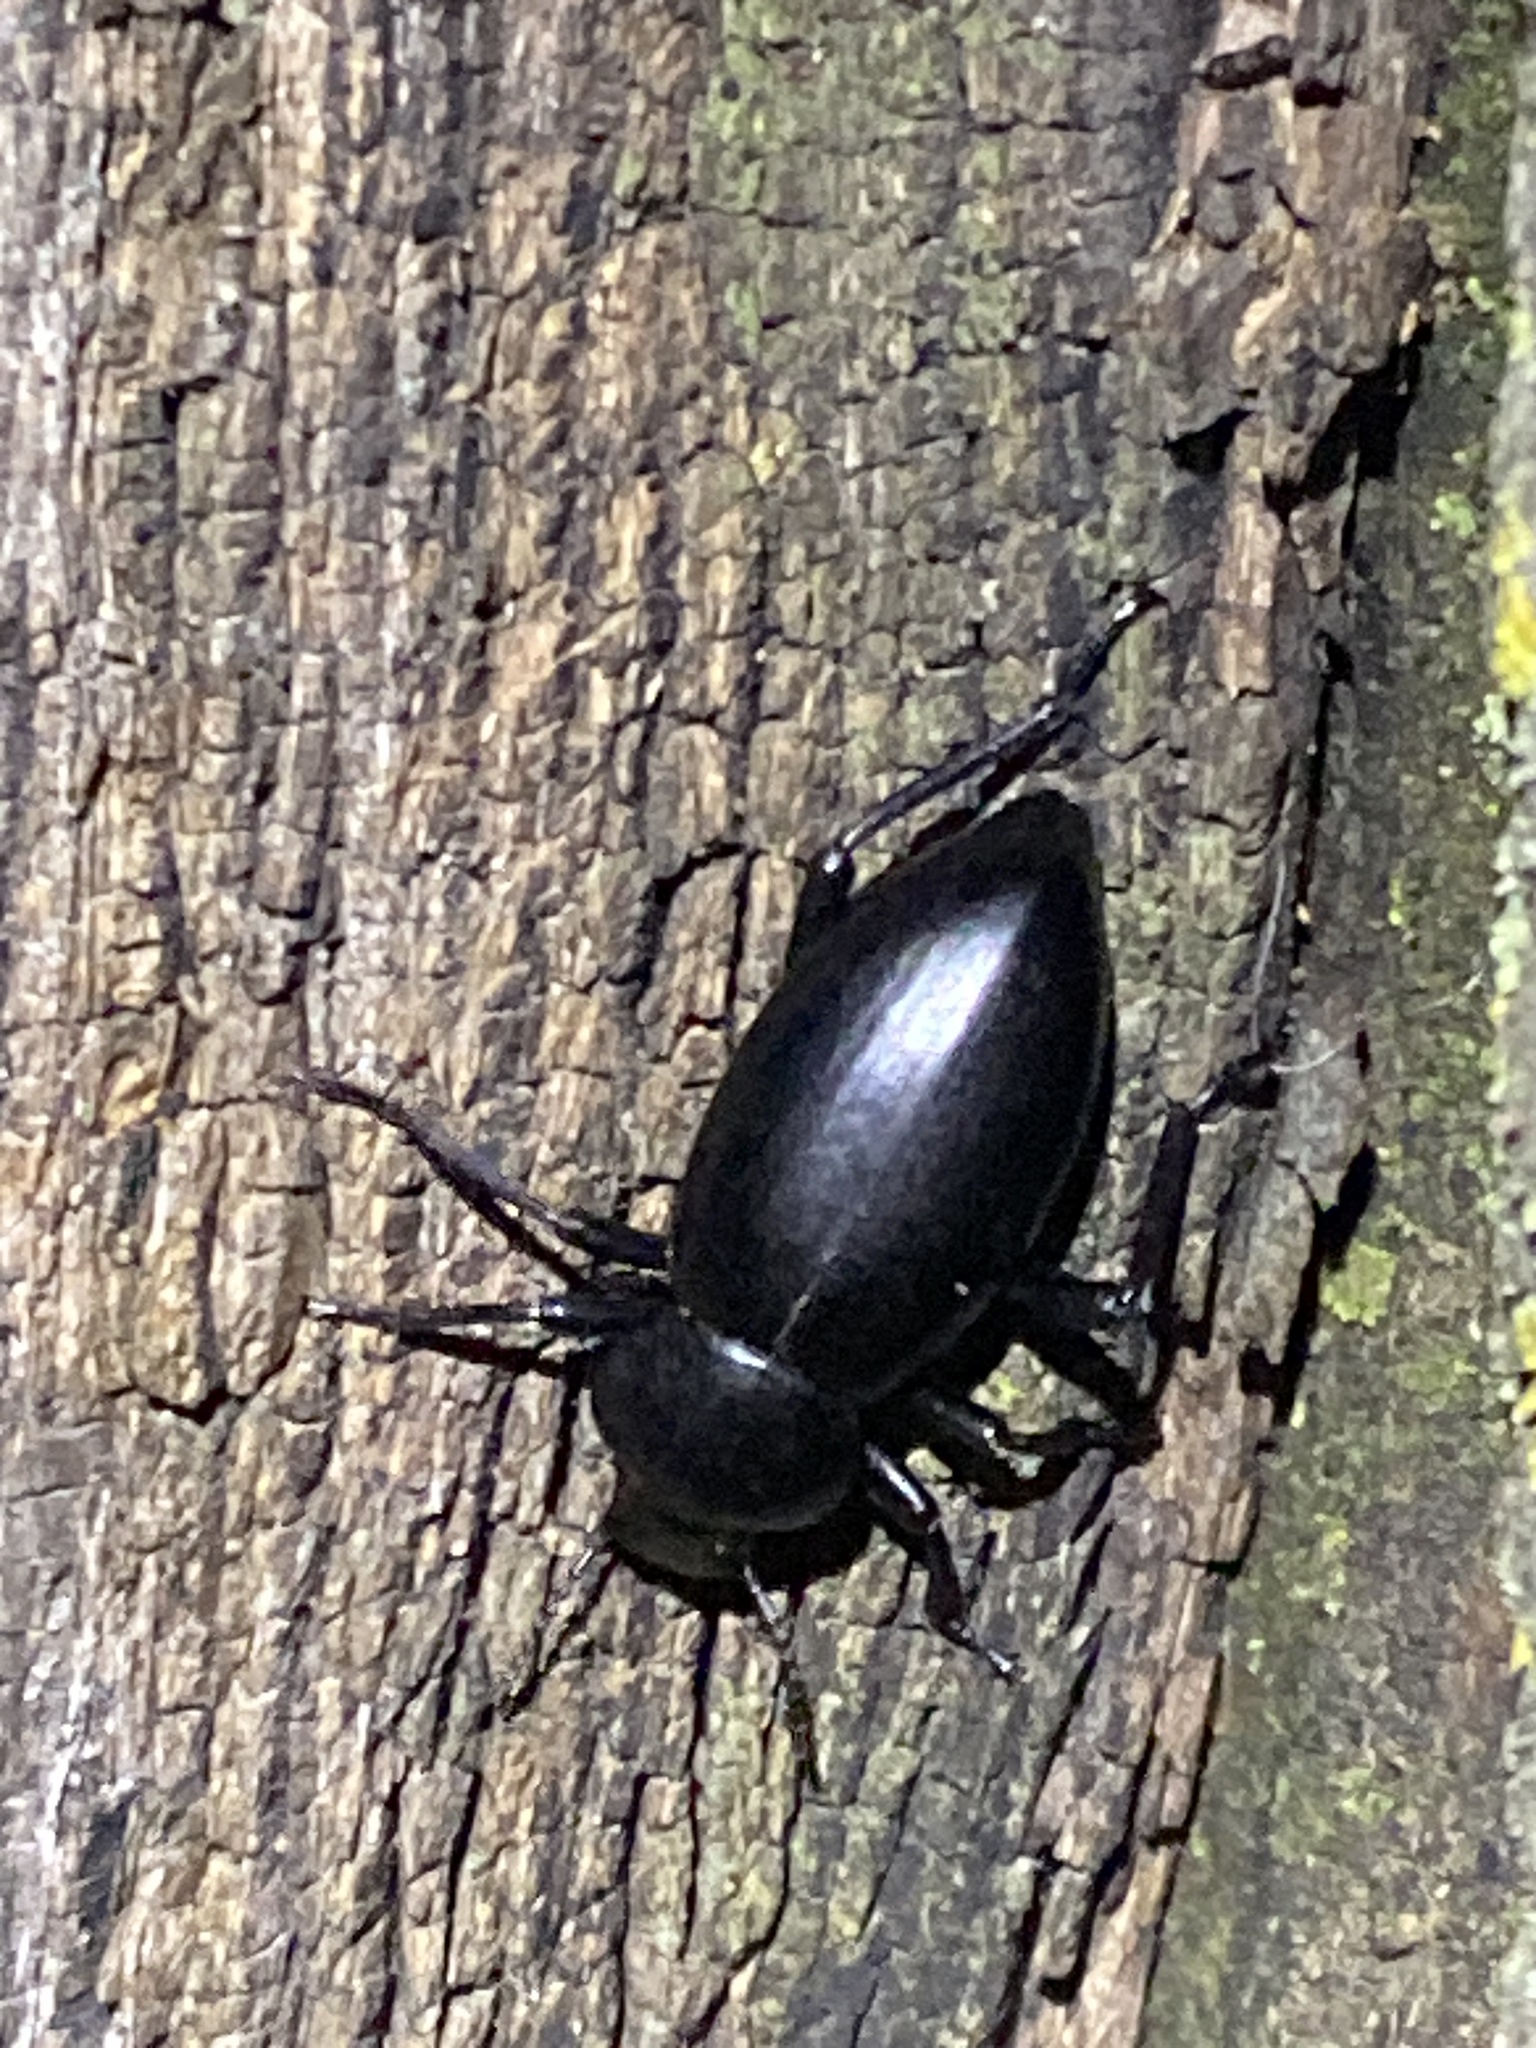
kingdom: Animalia
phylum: Arthropoda
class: Insecta
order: Coleoptera
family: Tenebrionidae
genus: Eleodes
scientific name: Eleodes dentipes
